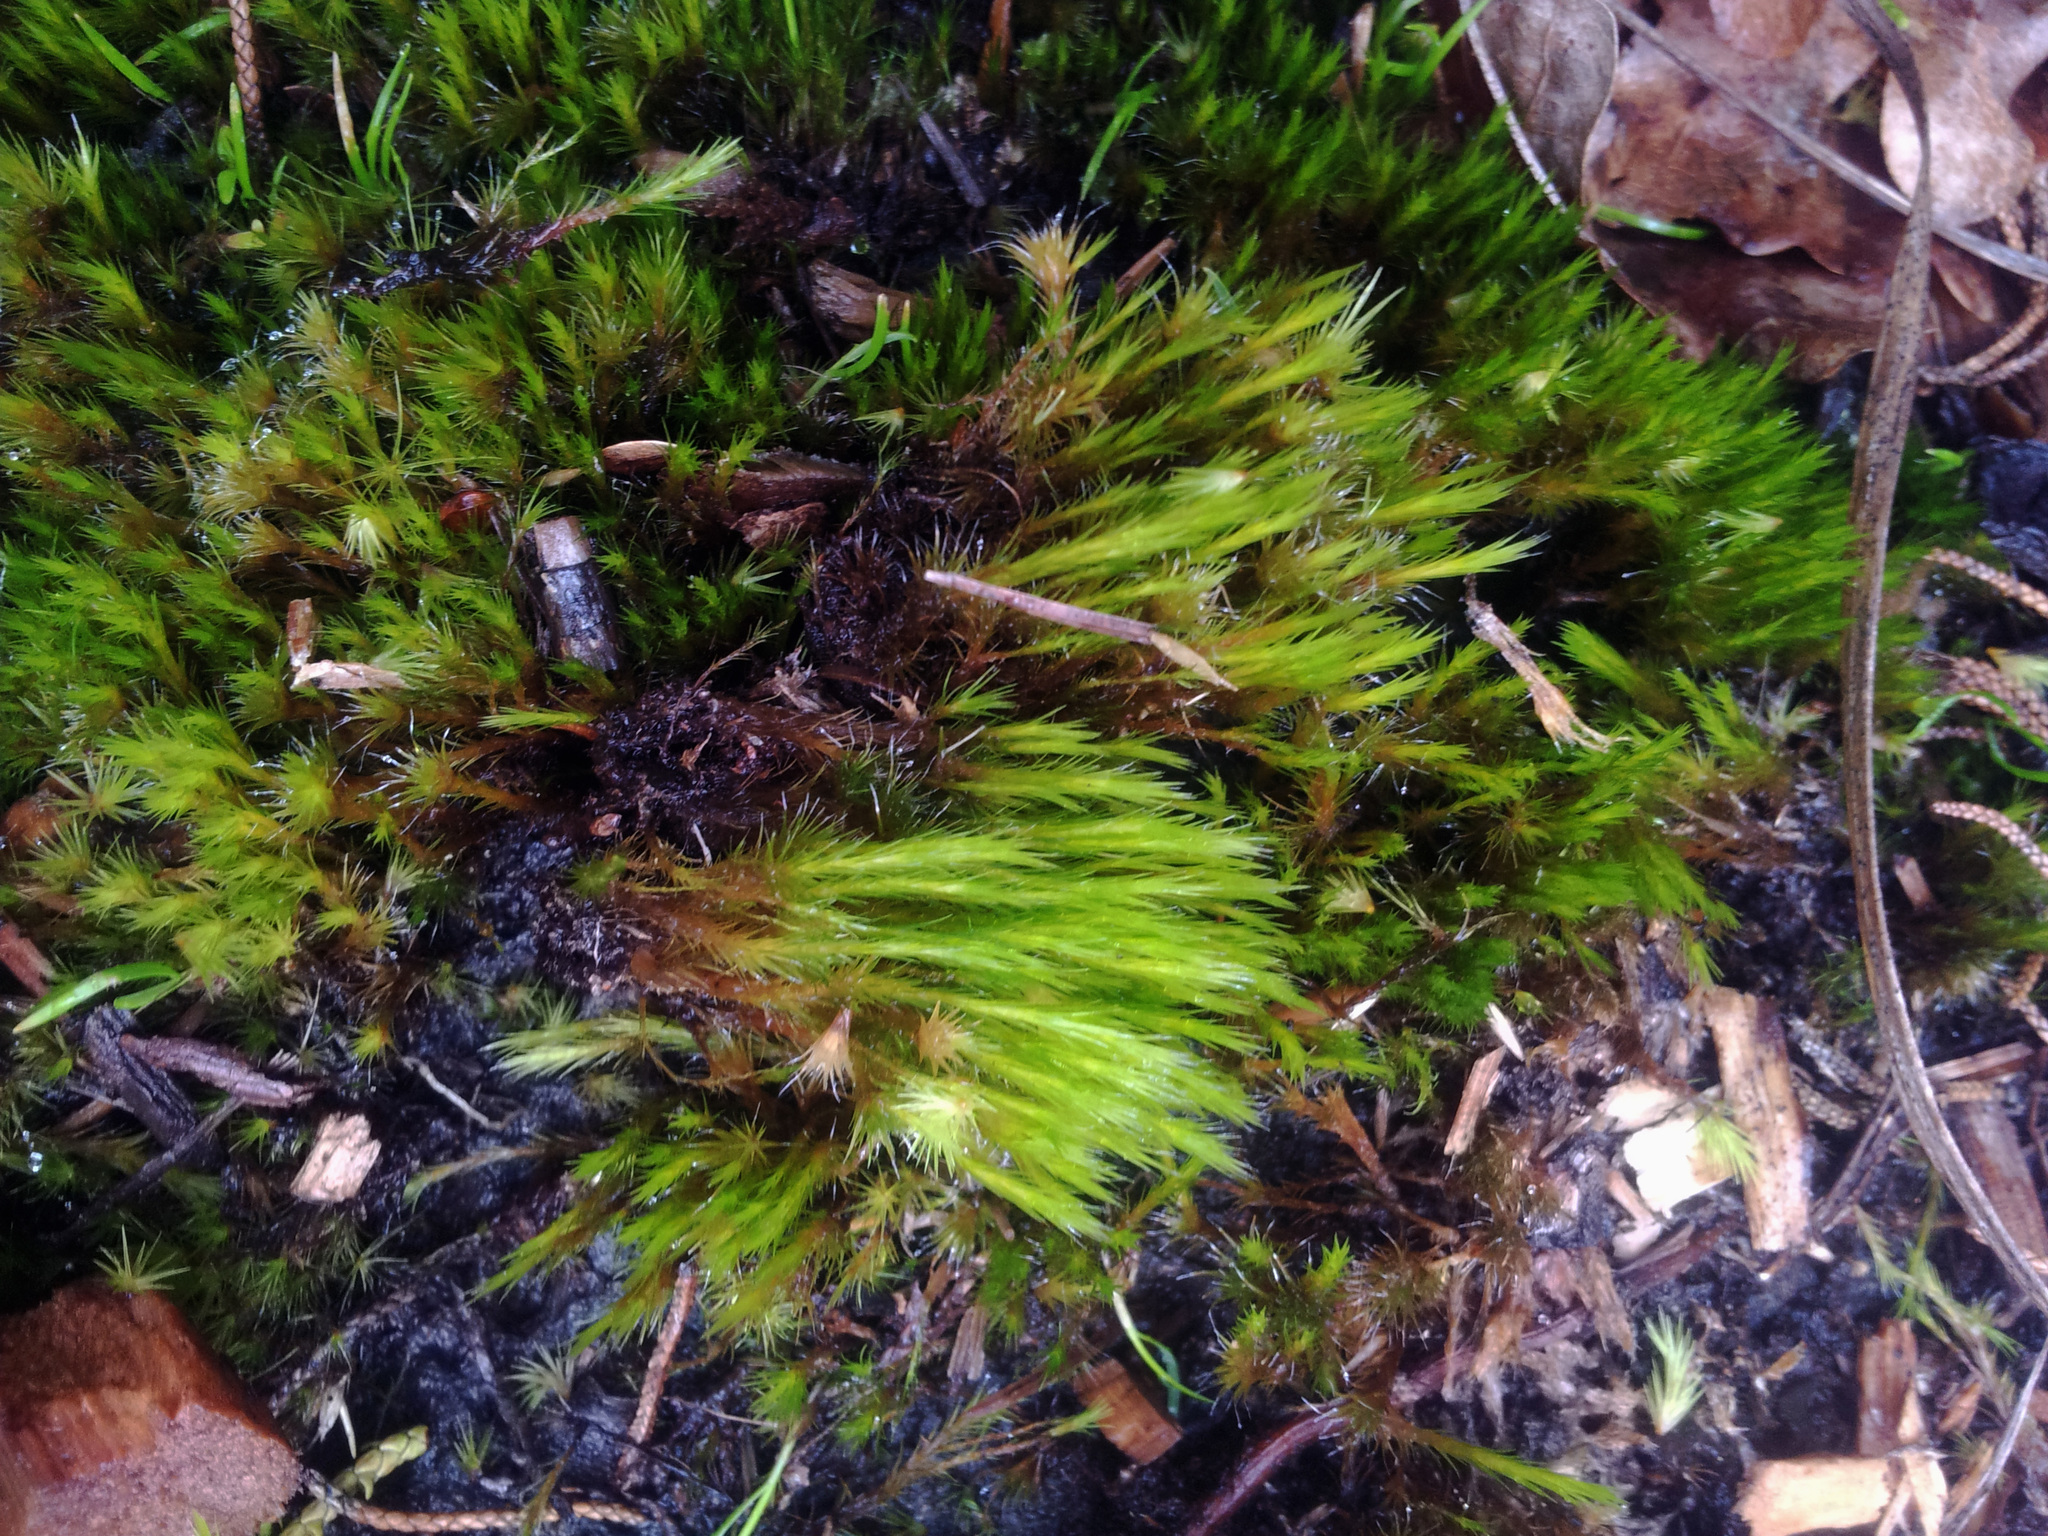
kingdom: Plantae
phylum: Bryophyta
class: Bryopsida
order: Dicranales
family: Leucobryaceae
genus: Campylopus
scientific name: Campylopus clavatus
